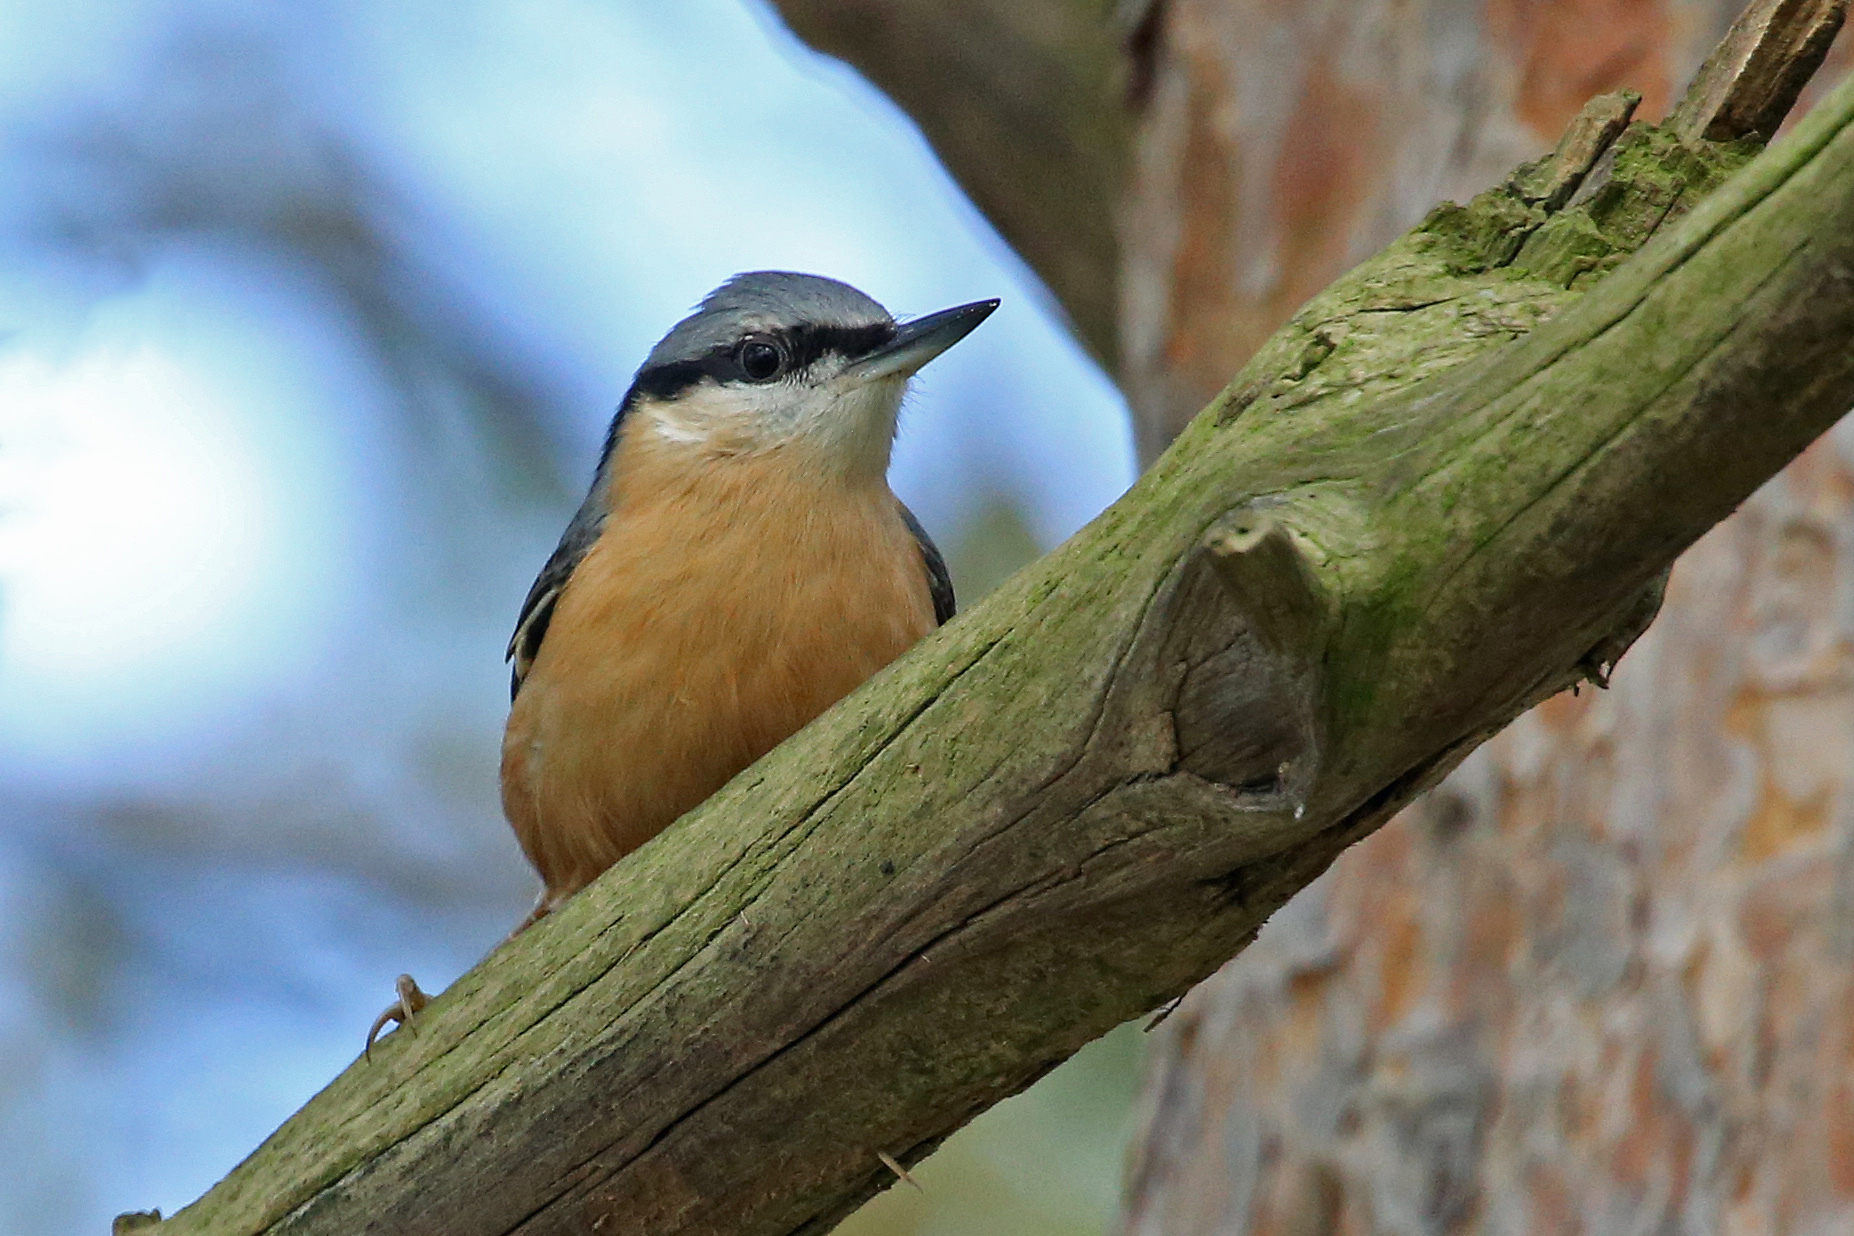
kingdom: Animalia
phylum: Chordata
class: Aves
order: Passeriformes
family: Sittidae
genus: Sitta
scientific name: Sitta europaea
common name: Eurasian nuthatch
